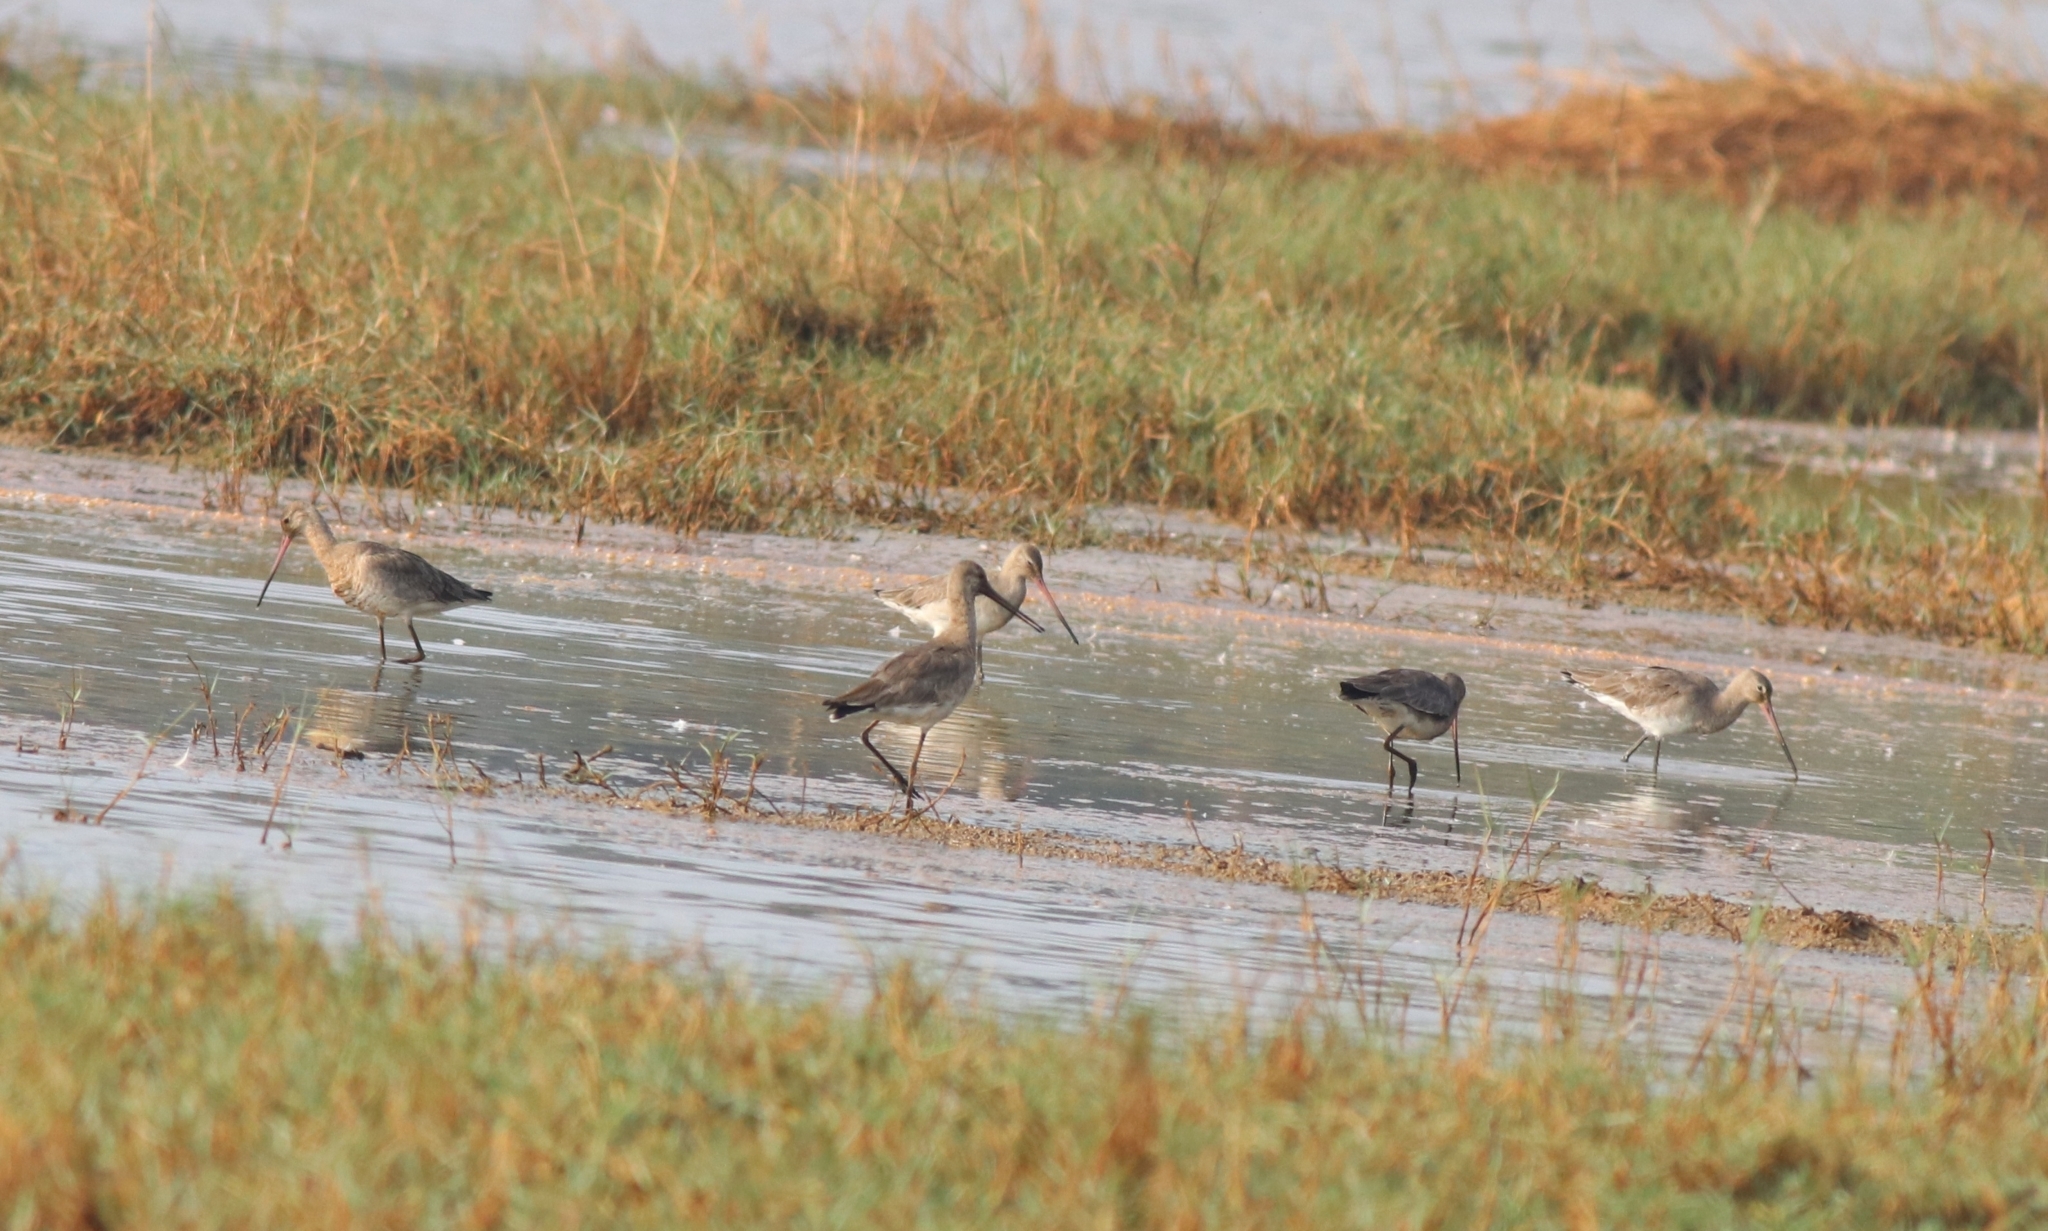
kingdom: Animalia
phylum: Chordata
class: Aves
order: Charadriiformes
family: Scolopacidae
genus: Limosa
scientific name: Limosa limosa
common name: Black-tailed godwit
